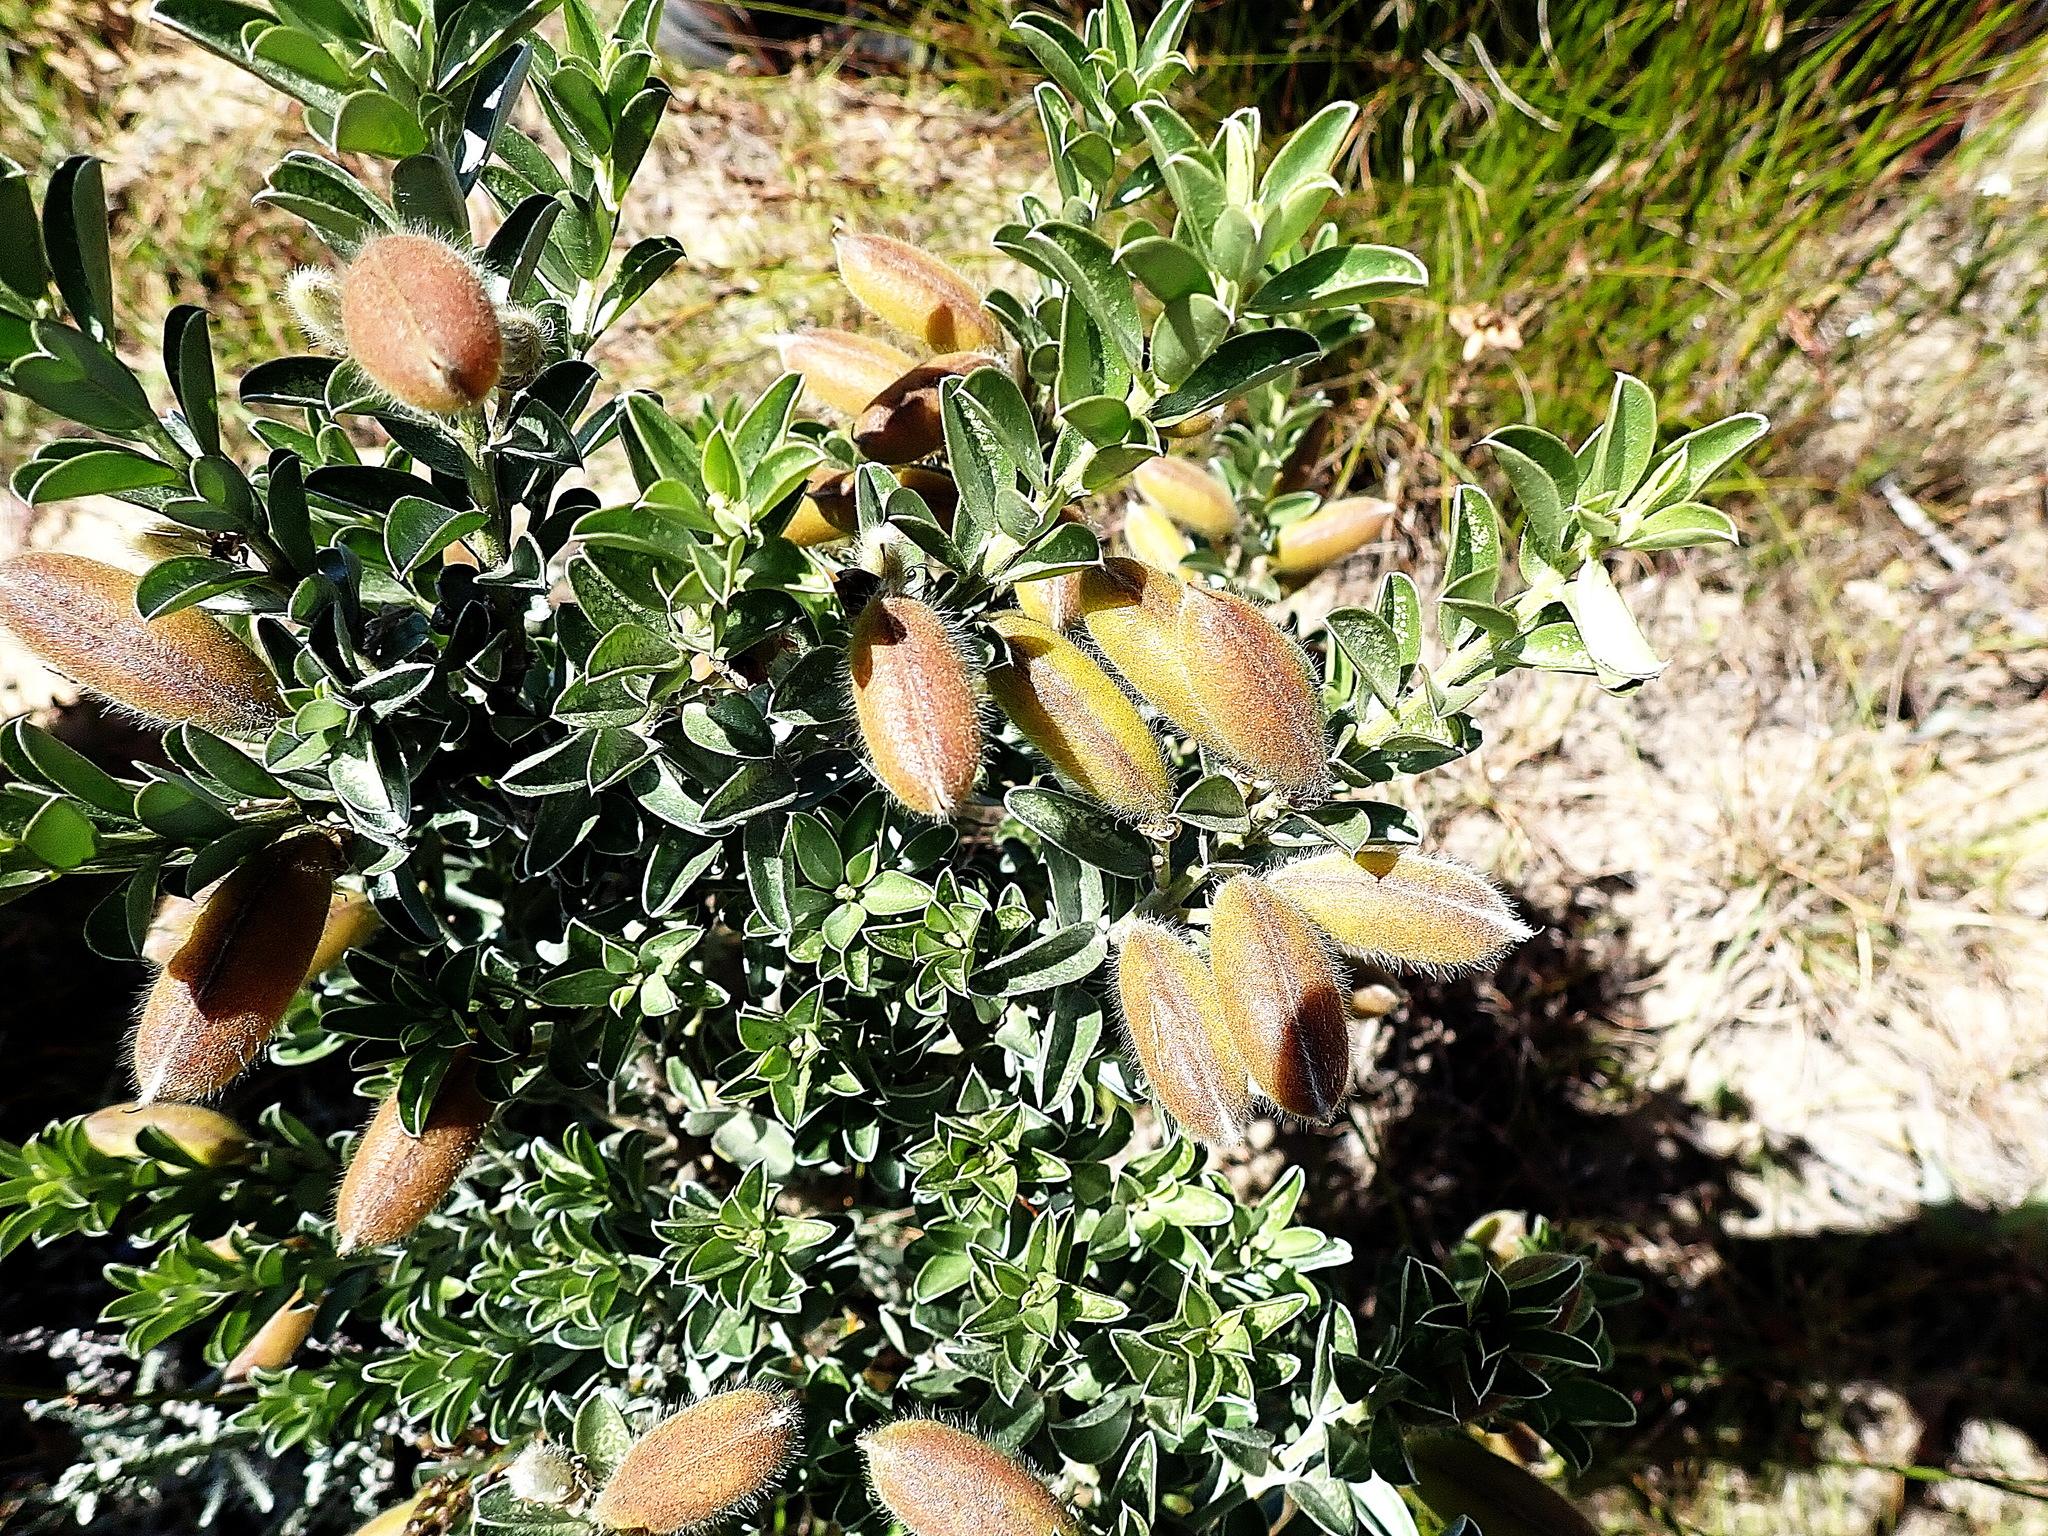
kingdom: Plantae
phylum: Tracheophyta
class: Magnoliopsida
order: Fabales
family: Fabaceae
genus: Podalyria
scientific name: Podalyria myrtillifolia
